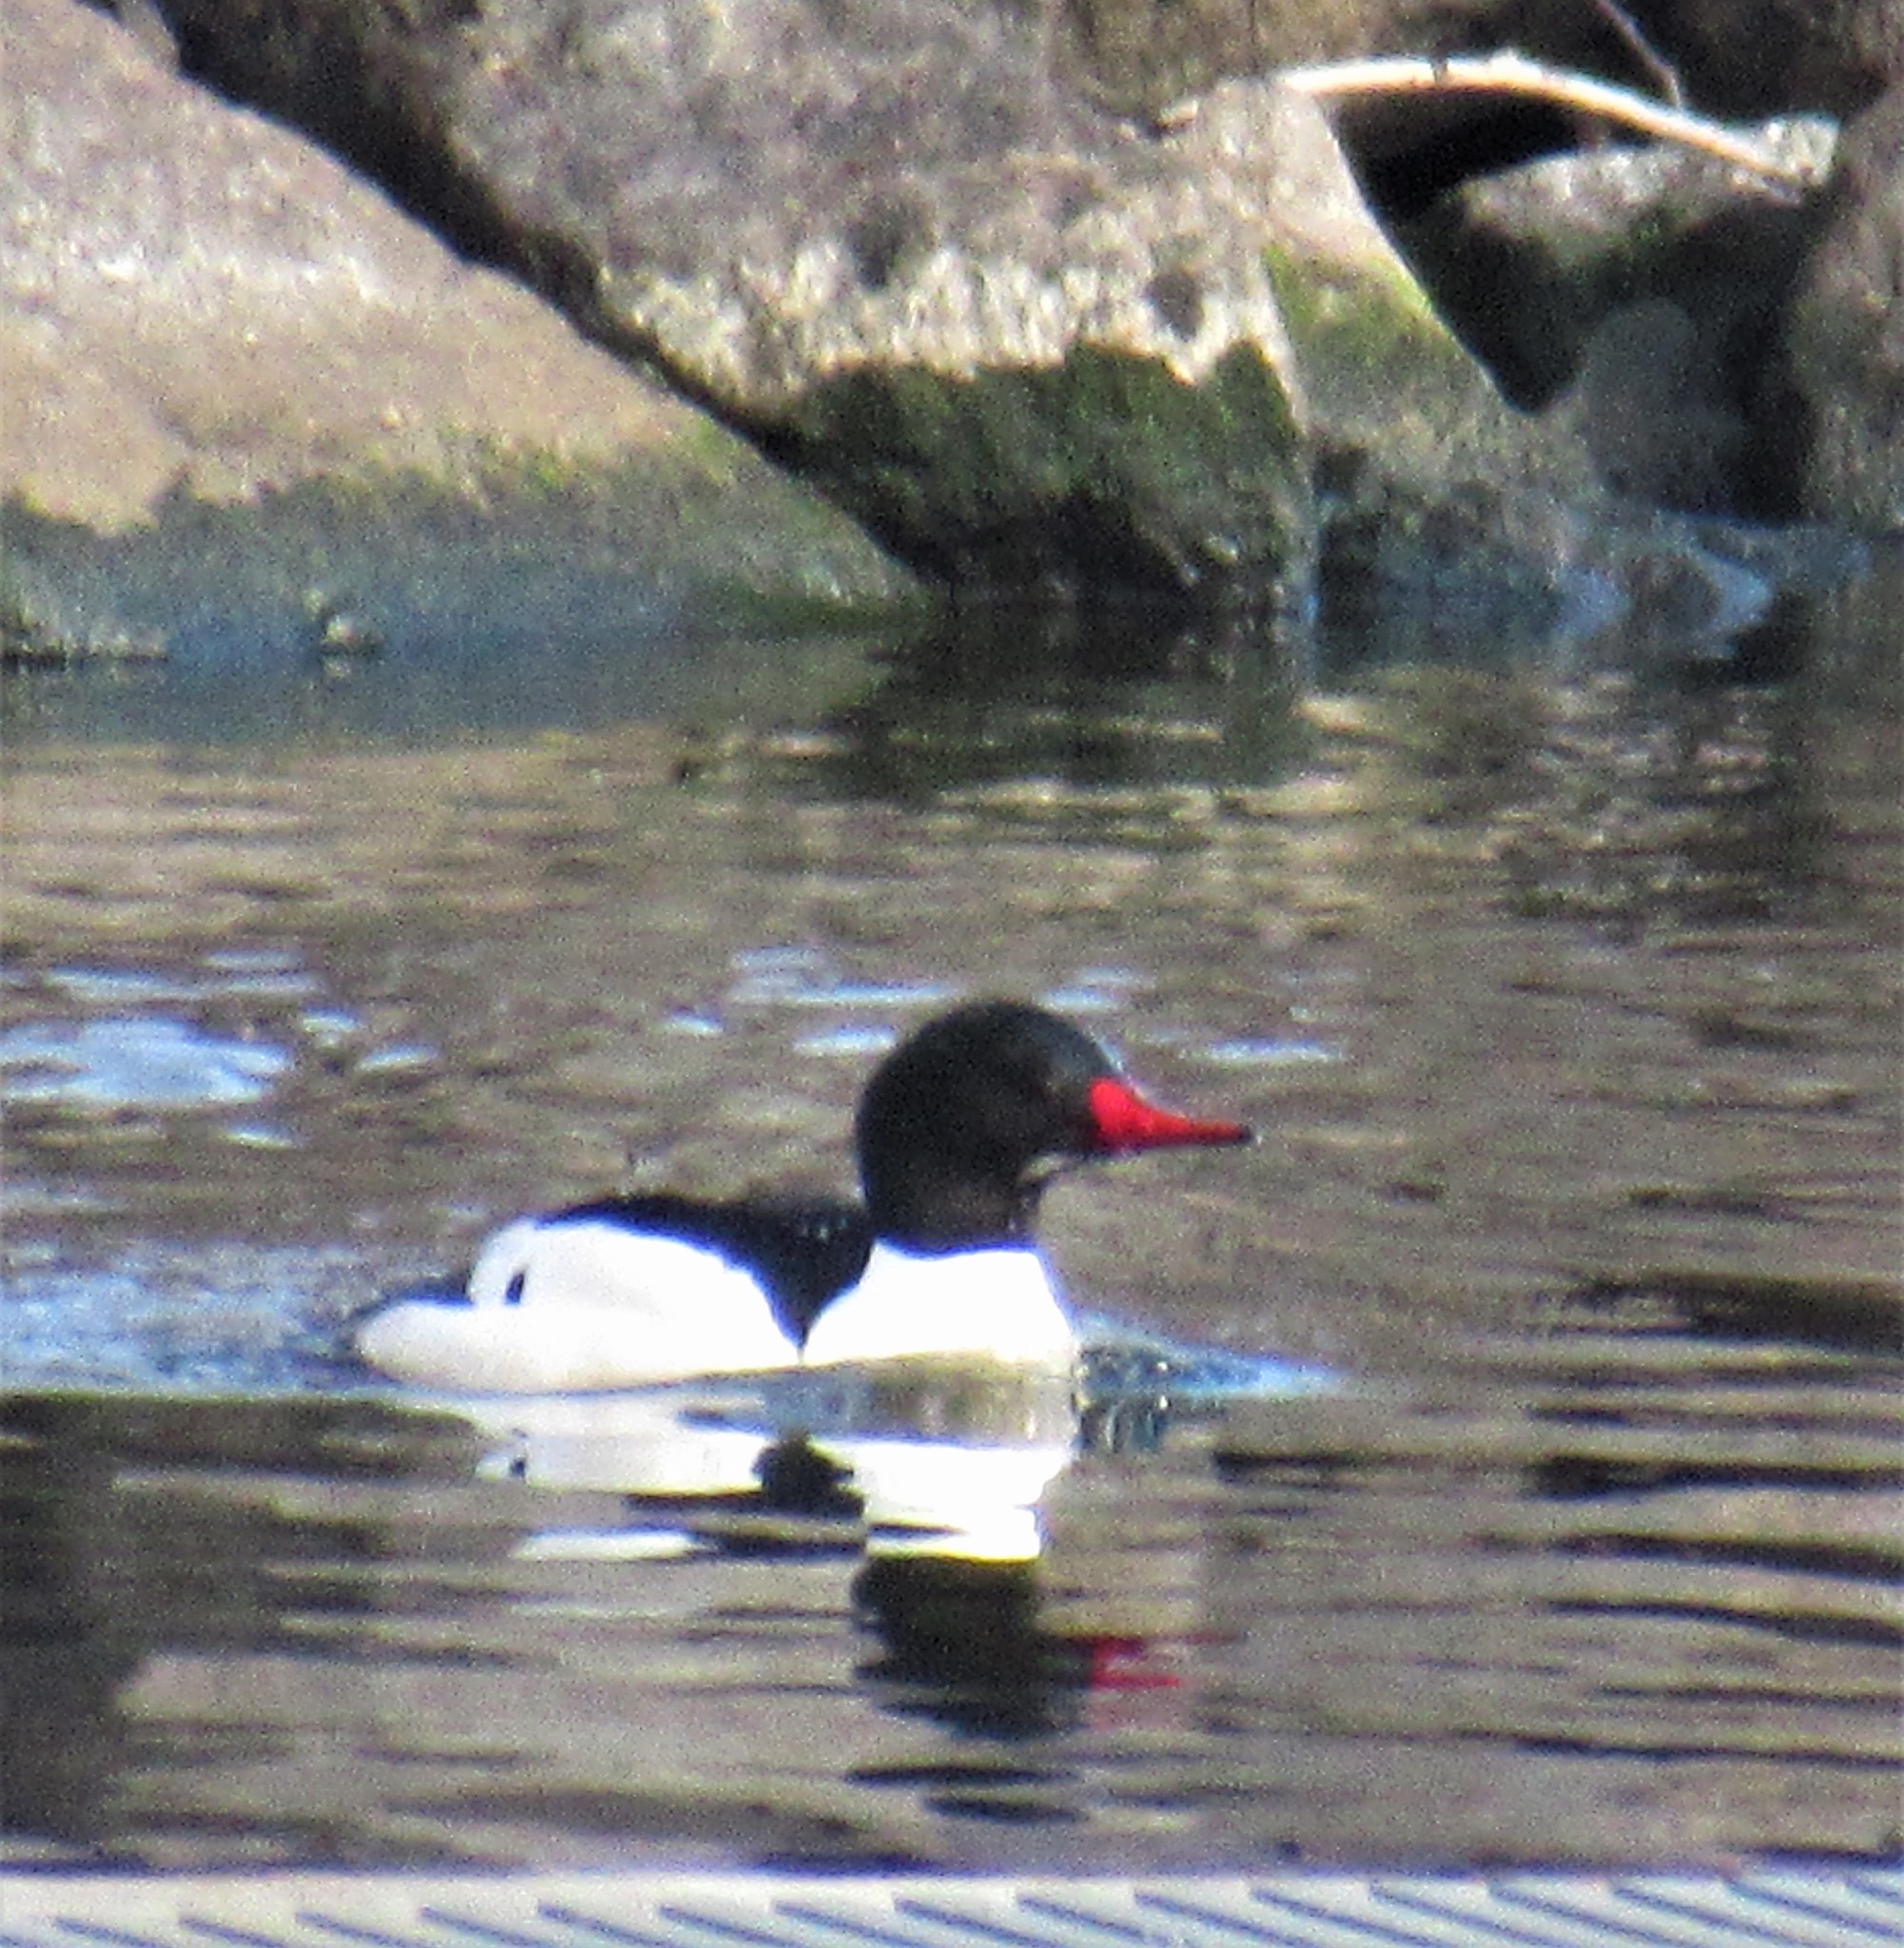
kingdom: Animalia
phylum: Chordata
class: Aves
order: Anseriformes
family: Anatidae
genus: Mergus
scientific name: Mergus merganser
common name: Common merganser
